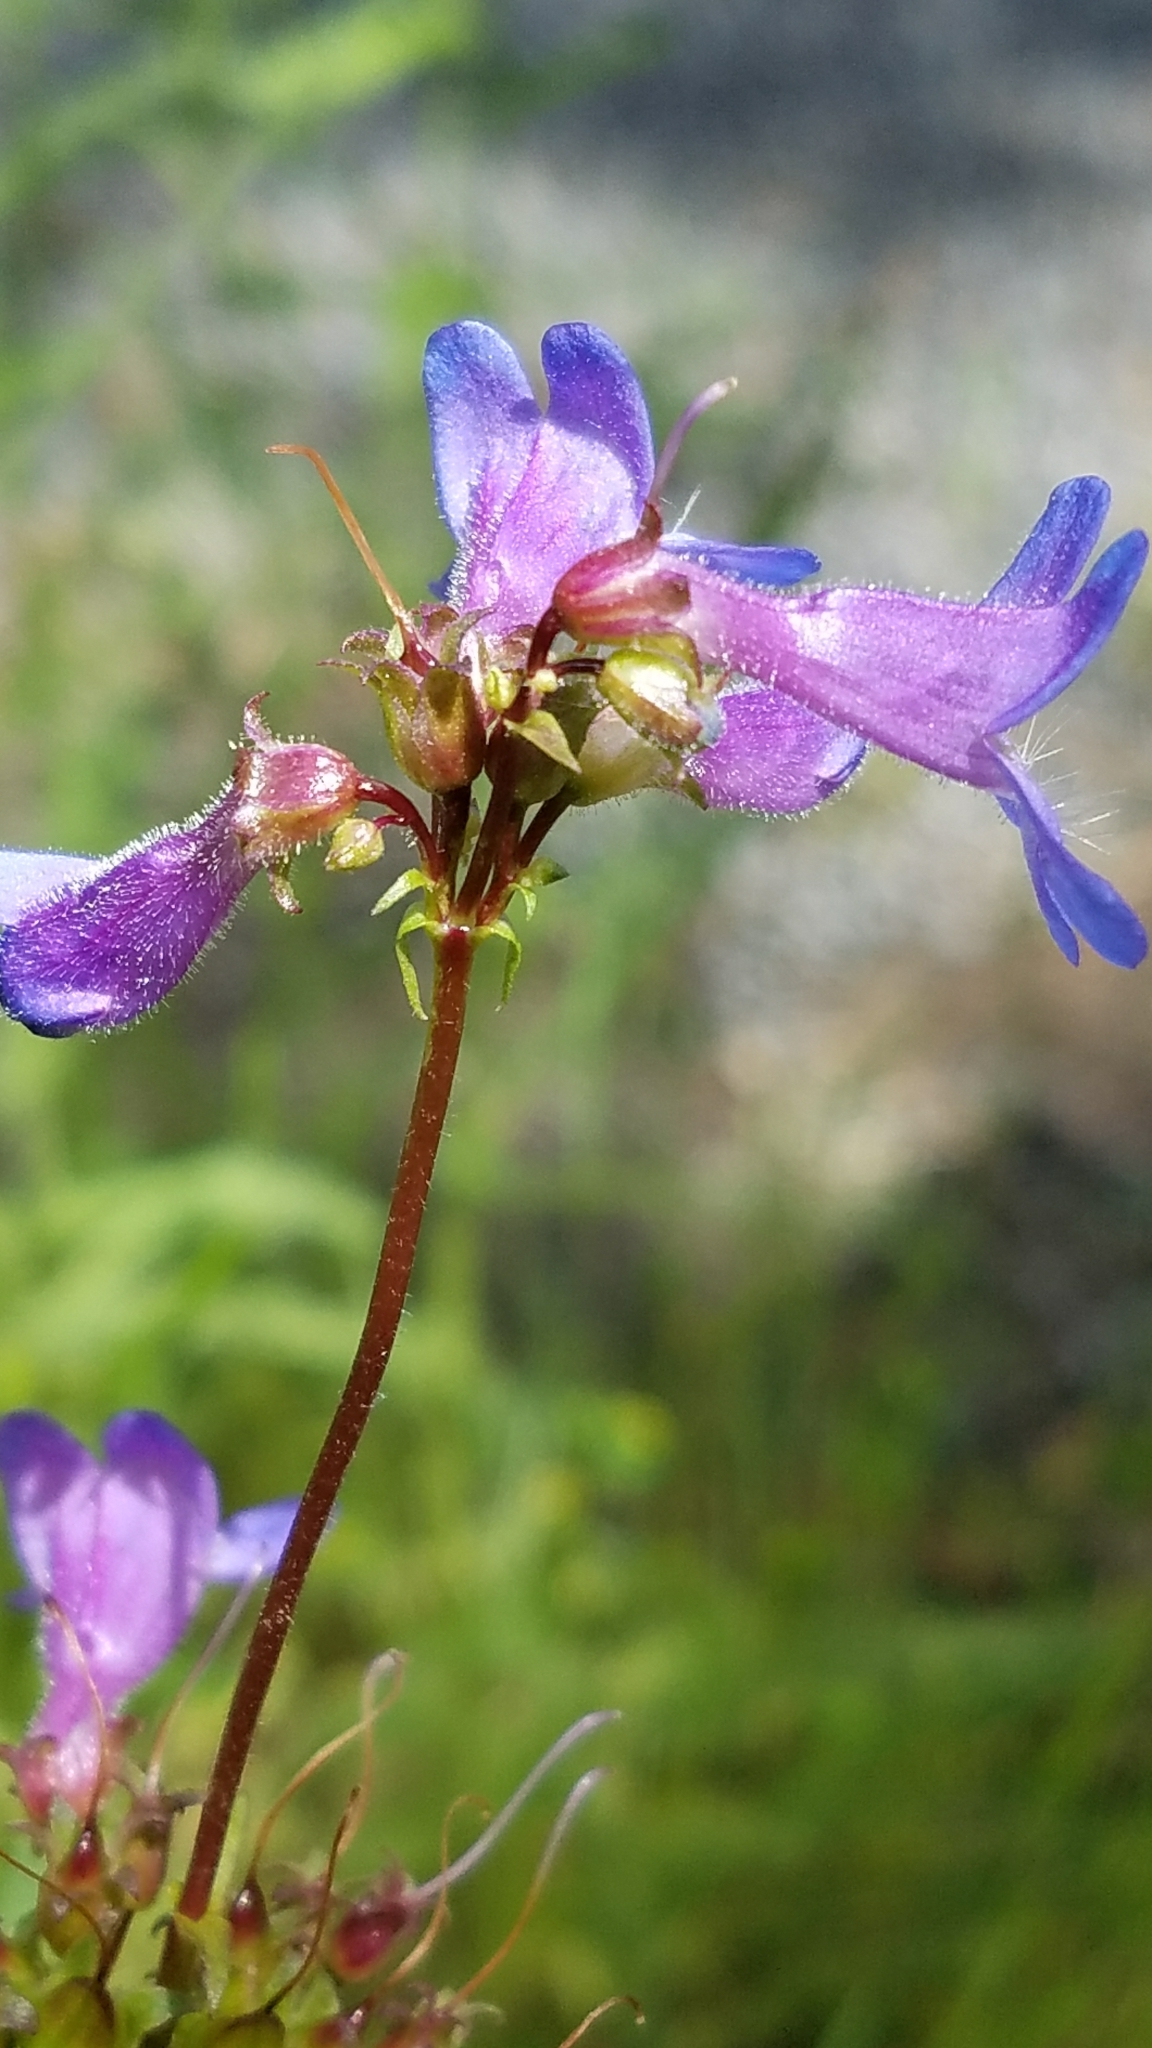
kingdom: Plantae
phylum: Tracheophyta
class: Magnoliopsida
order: Lamiales
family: Plantaginaceae
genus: Penstemon
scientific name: Penstemon wilcoxii
